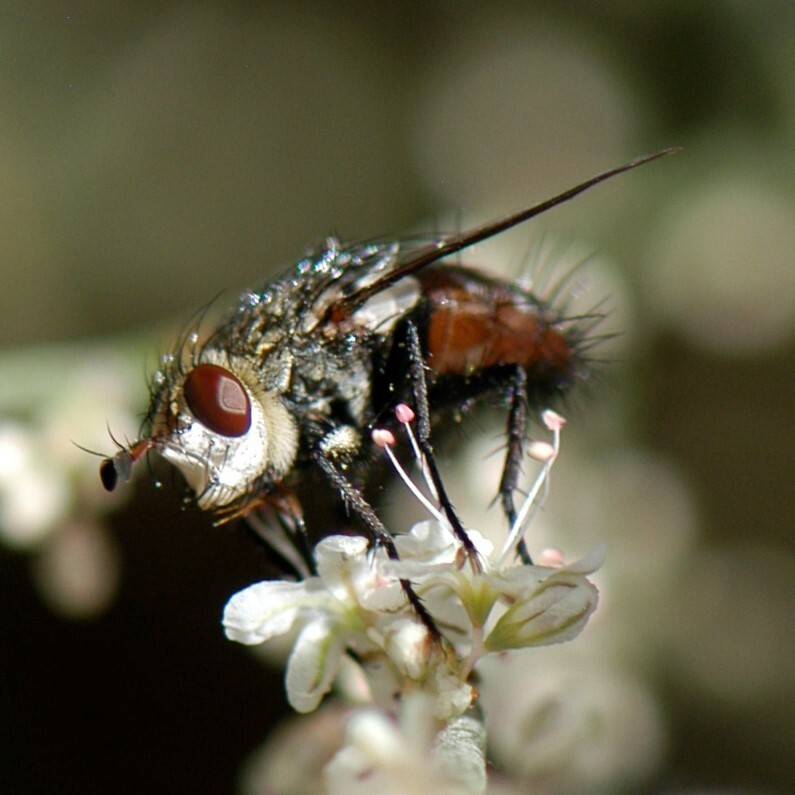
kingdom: Animalia
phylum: Arthropoda
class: Insecta
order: Diptera
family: Tachinidae
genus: Peleteria
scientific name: Peleteria
